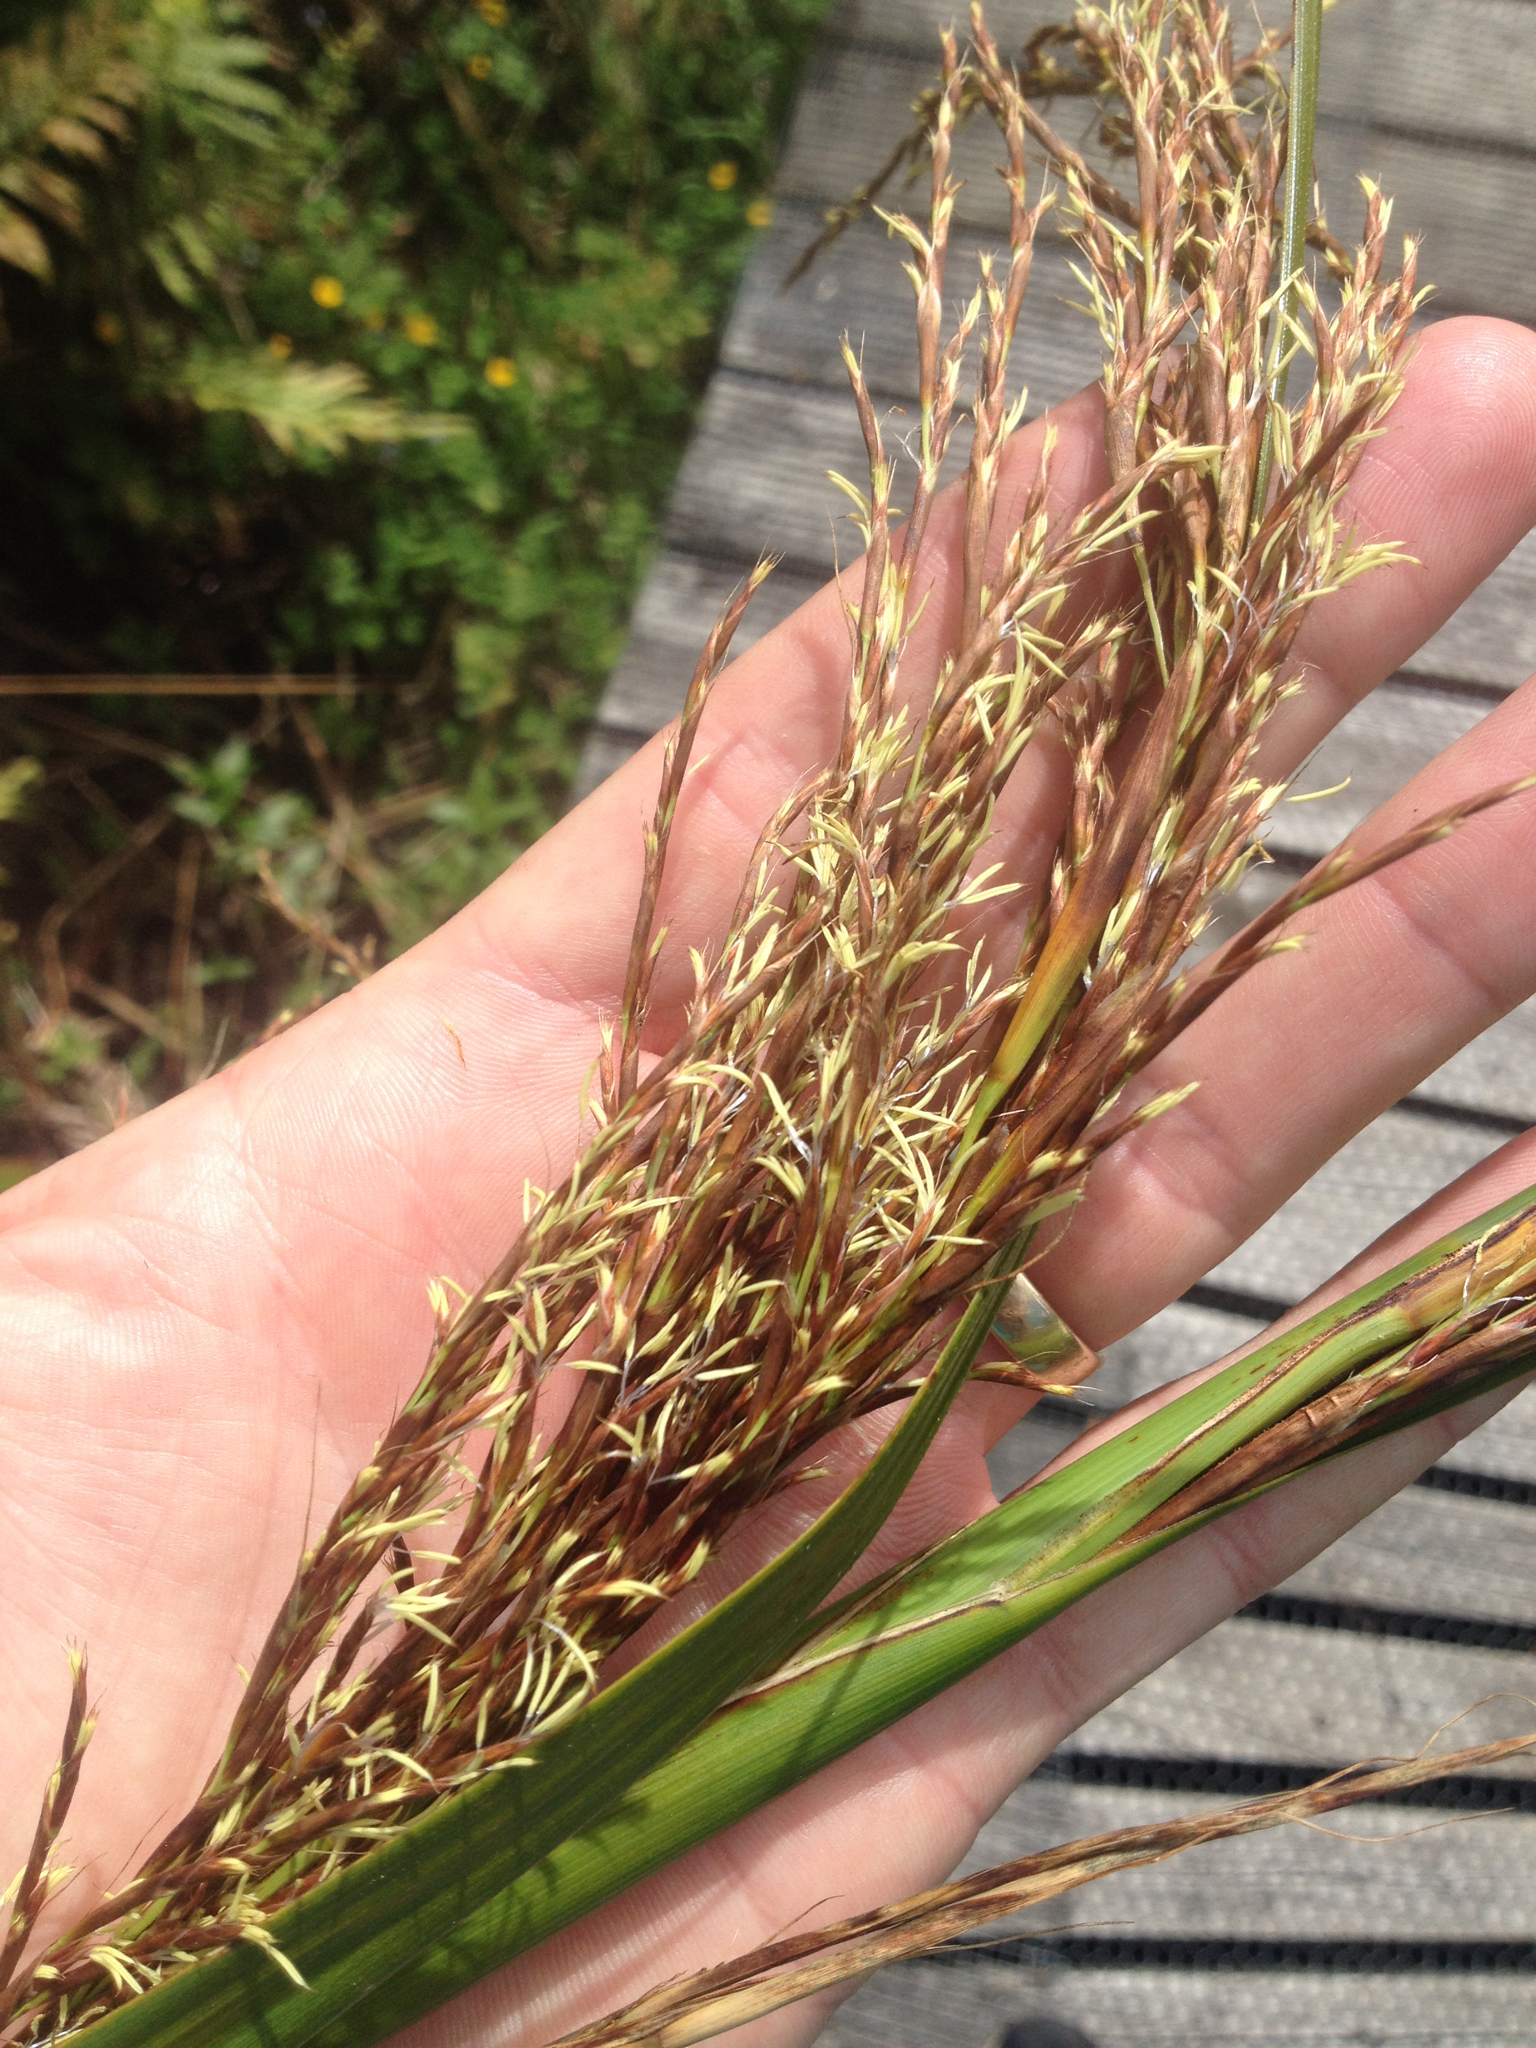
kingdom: Plantae
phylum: Tracheophyta
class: Liliopsida
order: Poales
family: Cyperaceae
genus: Gahnia
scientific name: Gahnia xanthocarpa
